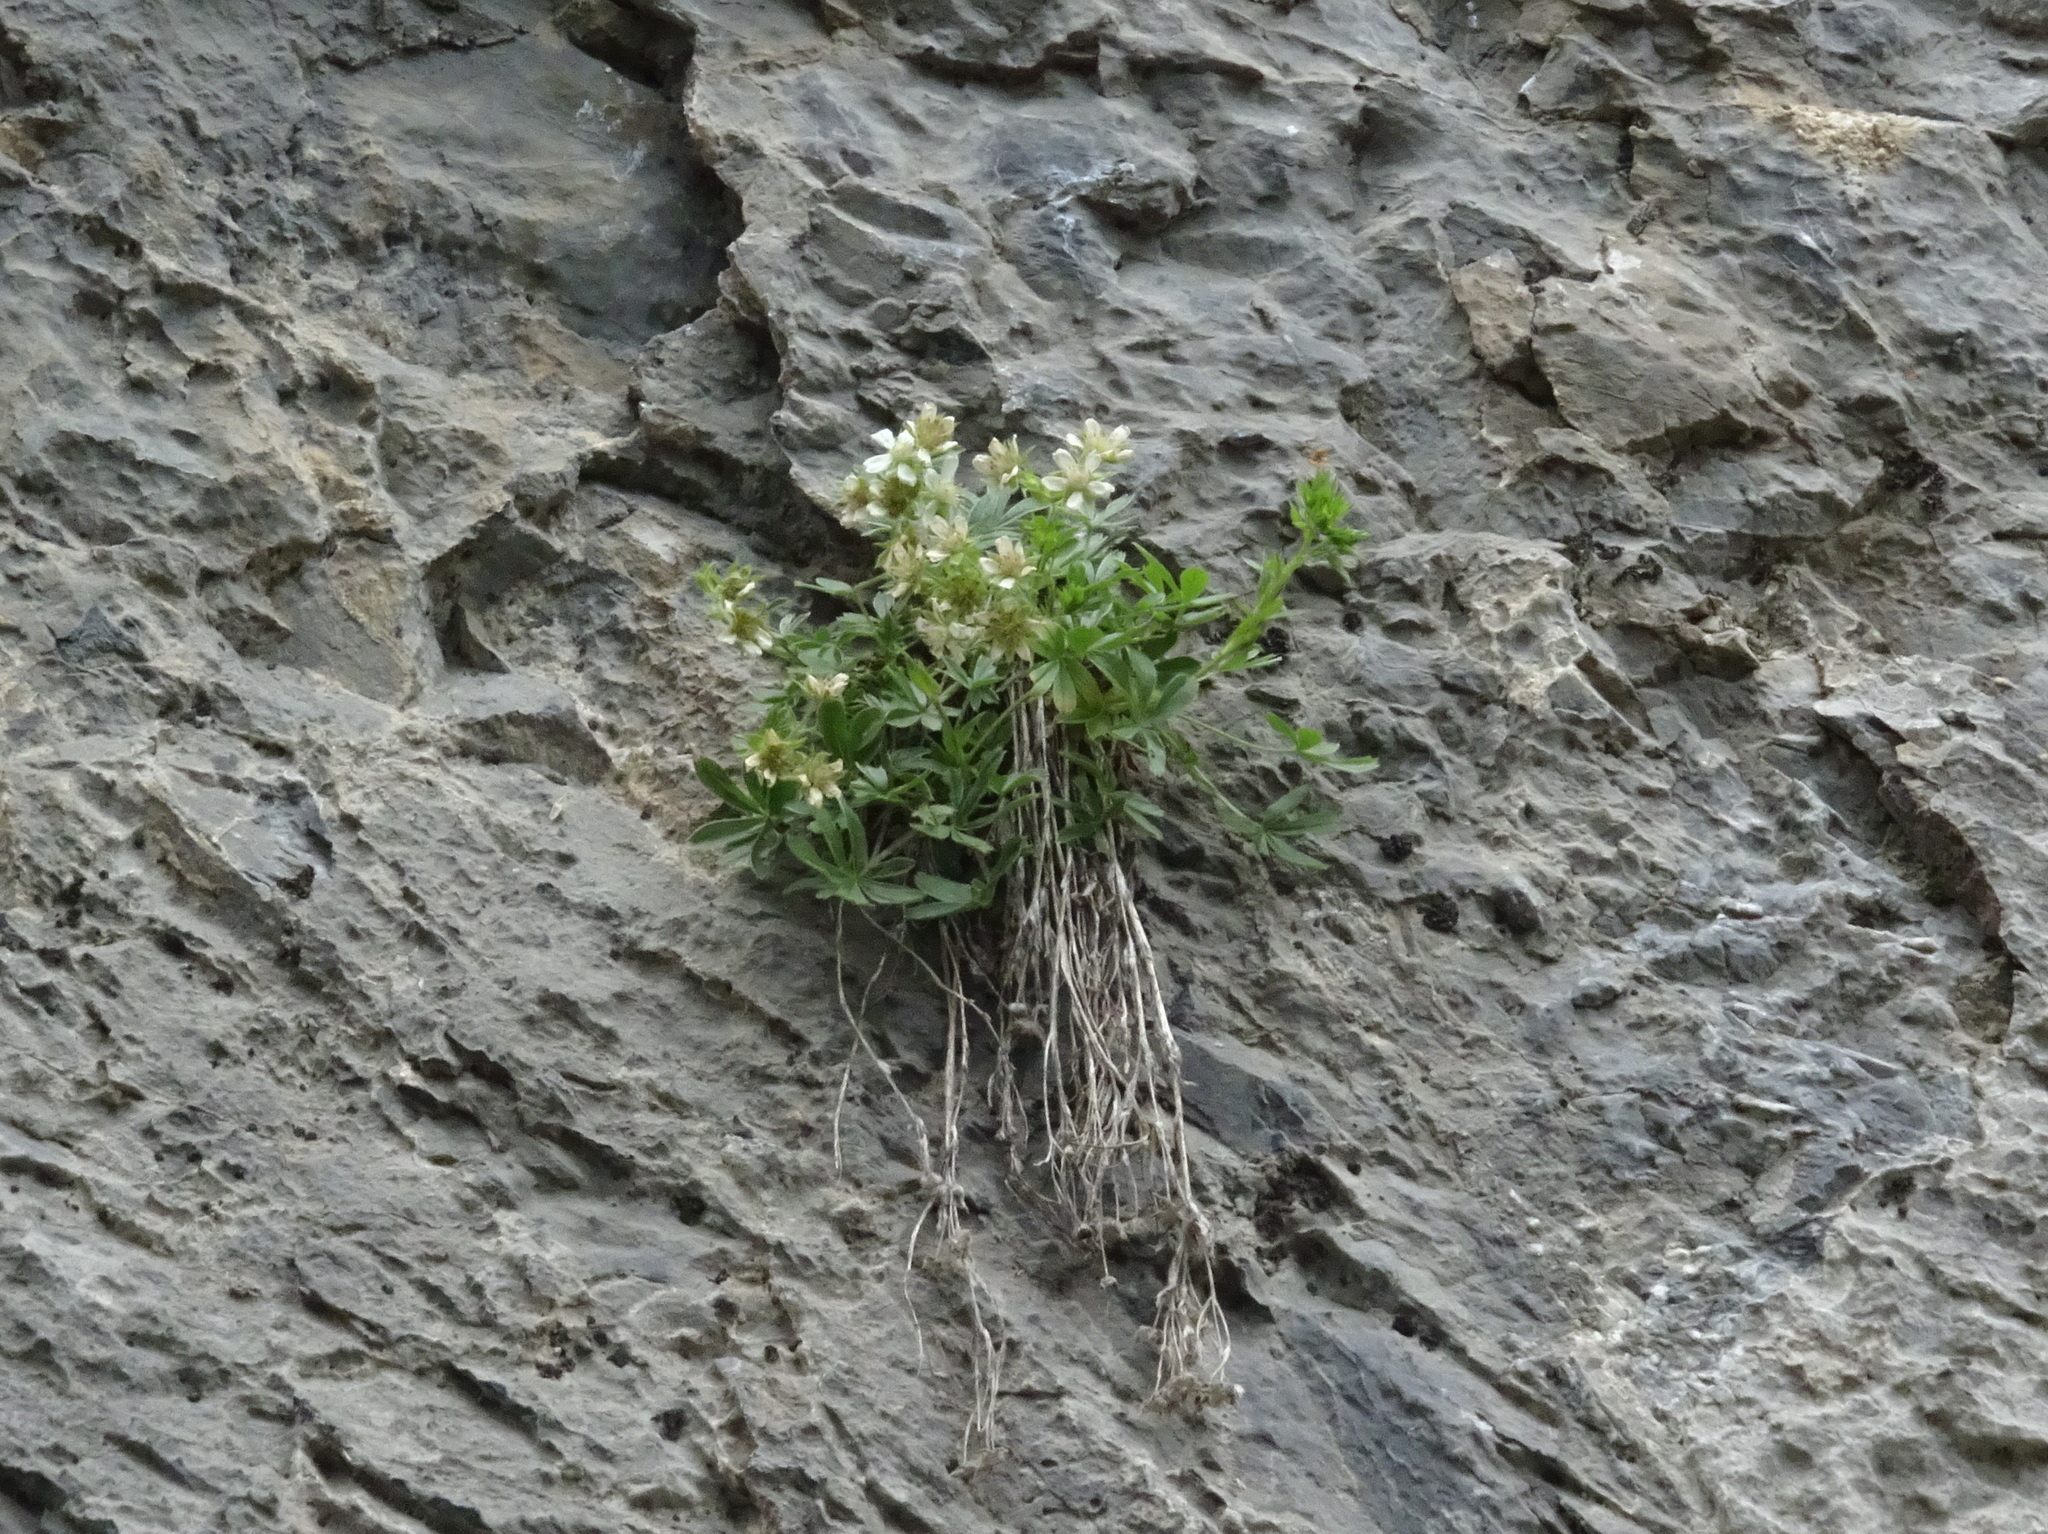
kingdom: Plantae
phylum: Tracheophyta
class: Magnoliopsida
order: Rosales
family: Rosaceae
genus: Potentilla
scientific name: Potentilla caulescens
